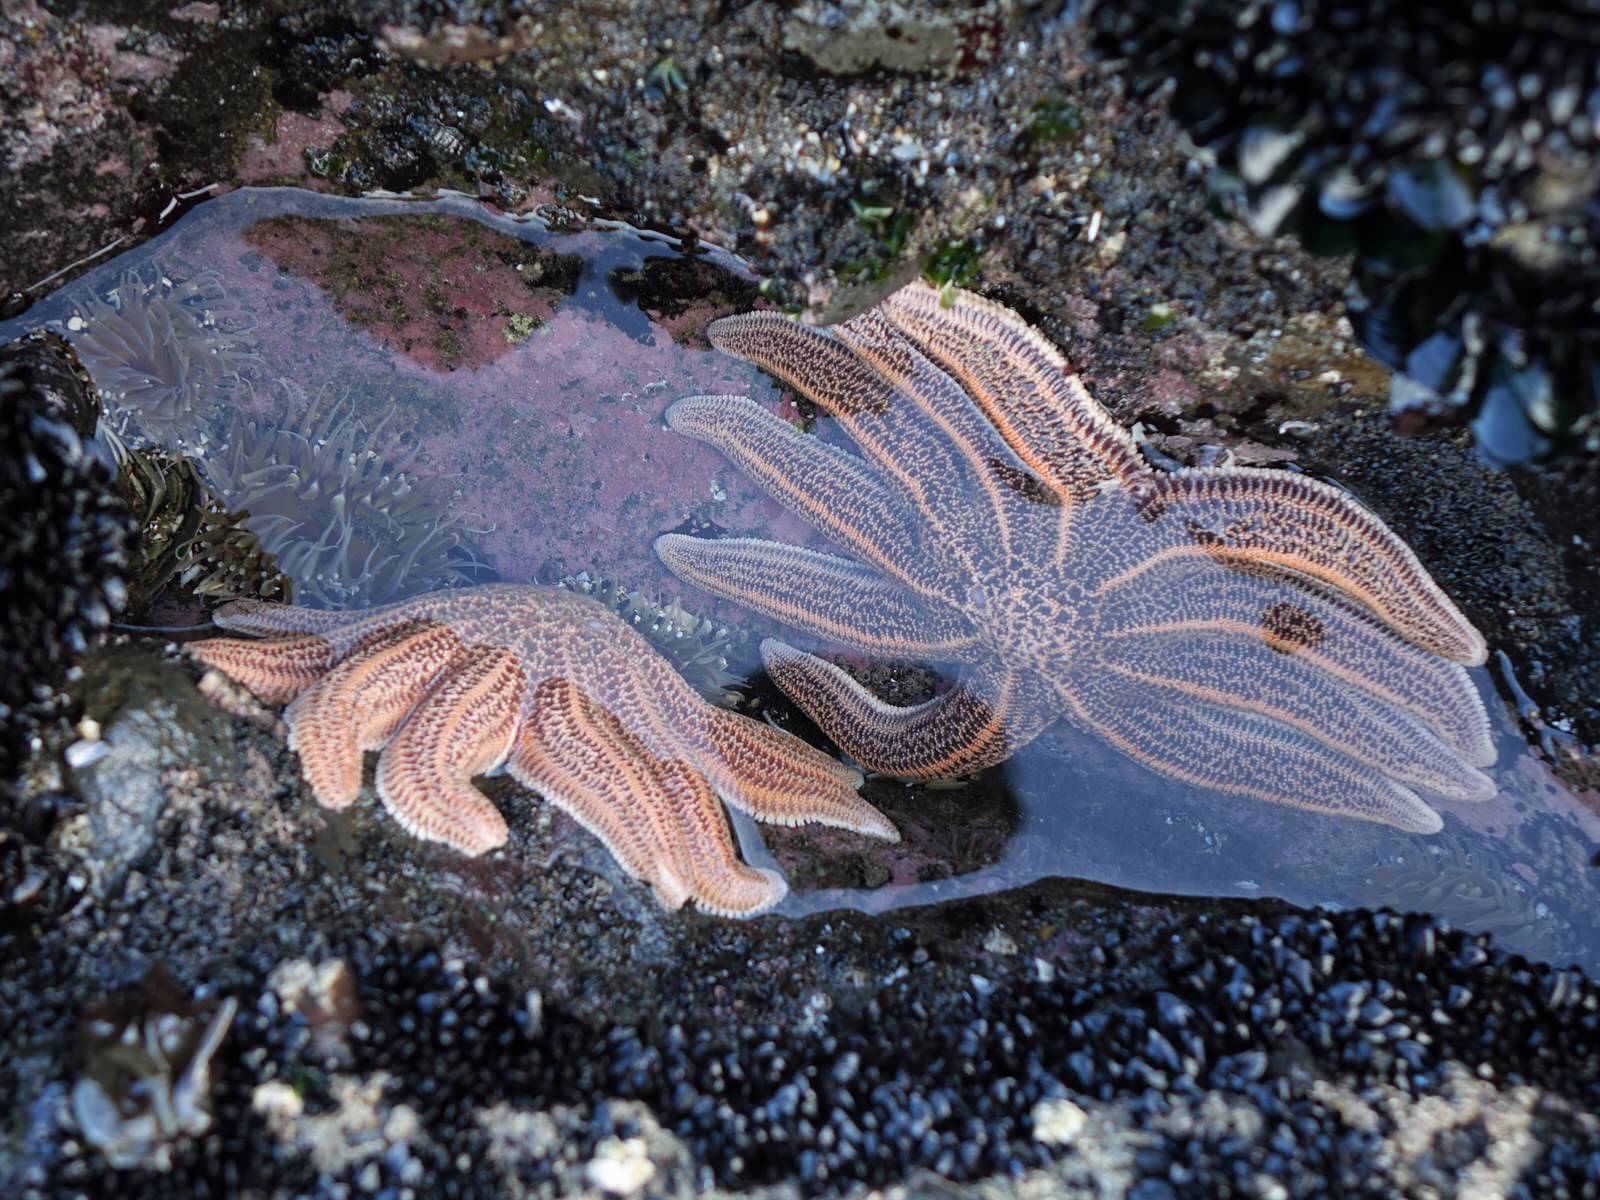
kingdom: Animalia
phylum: Echinodermata
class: Asteroidea
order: Forcipulatida
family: Stichasteridae
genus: Stichaster
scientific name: Stichaster australis
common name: Reef starfish
